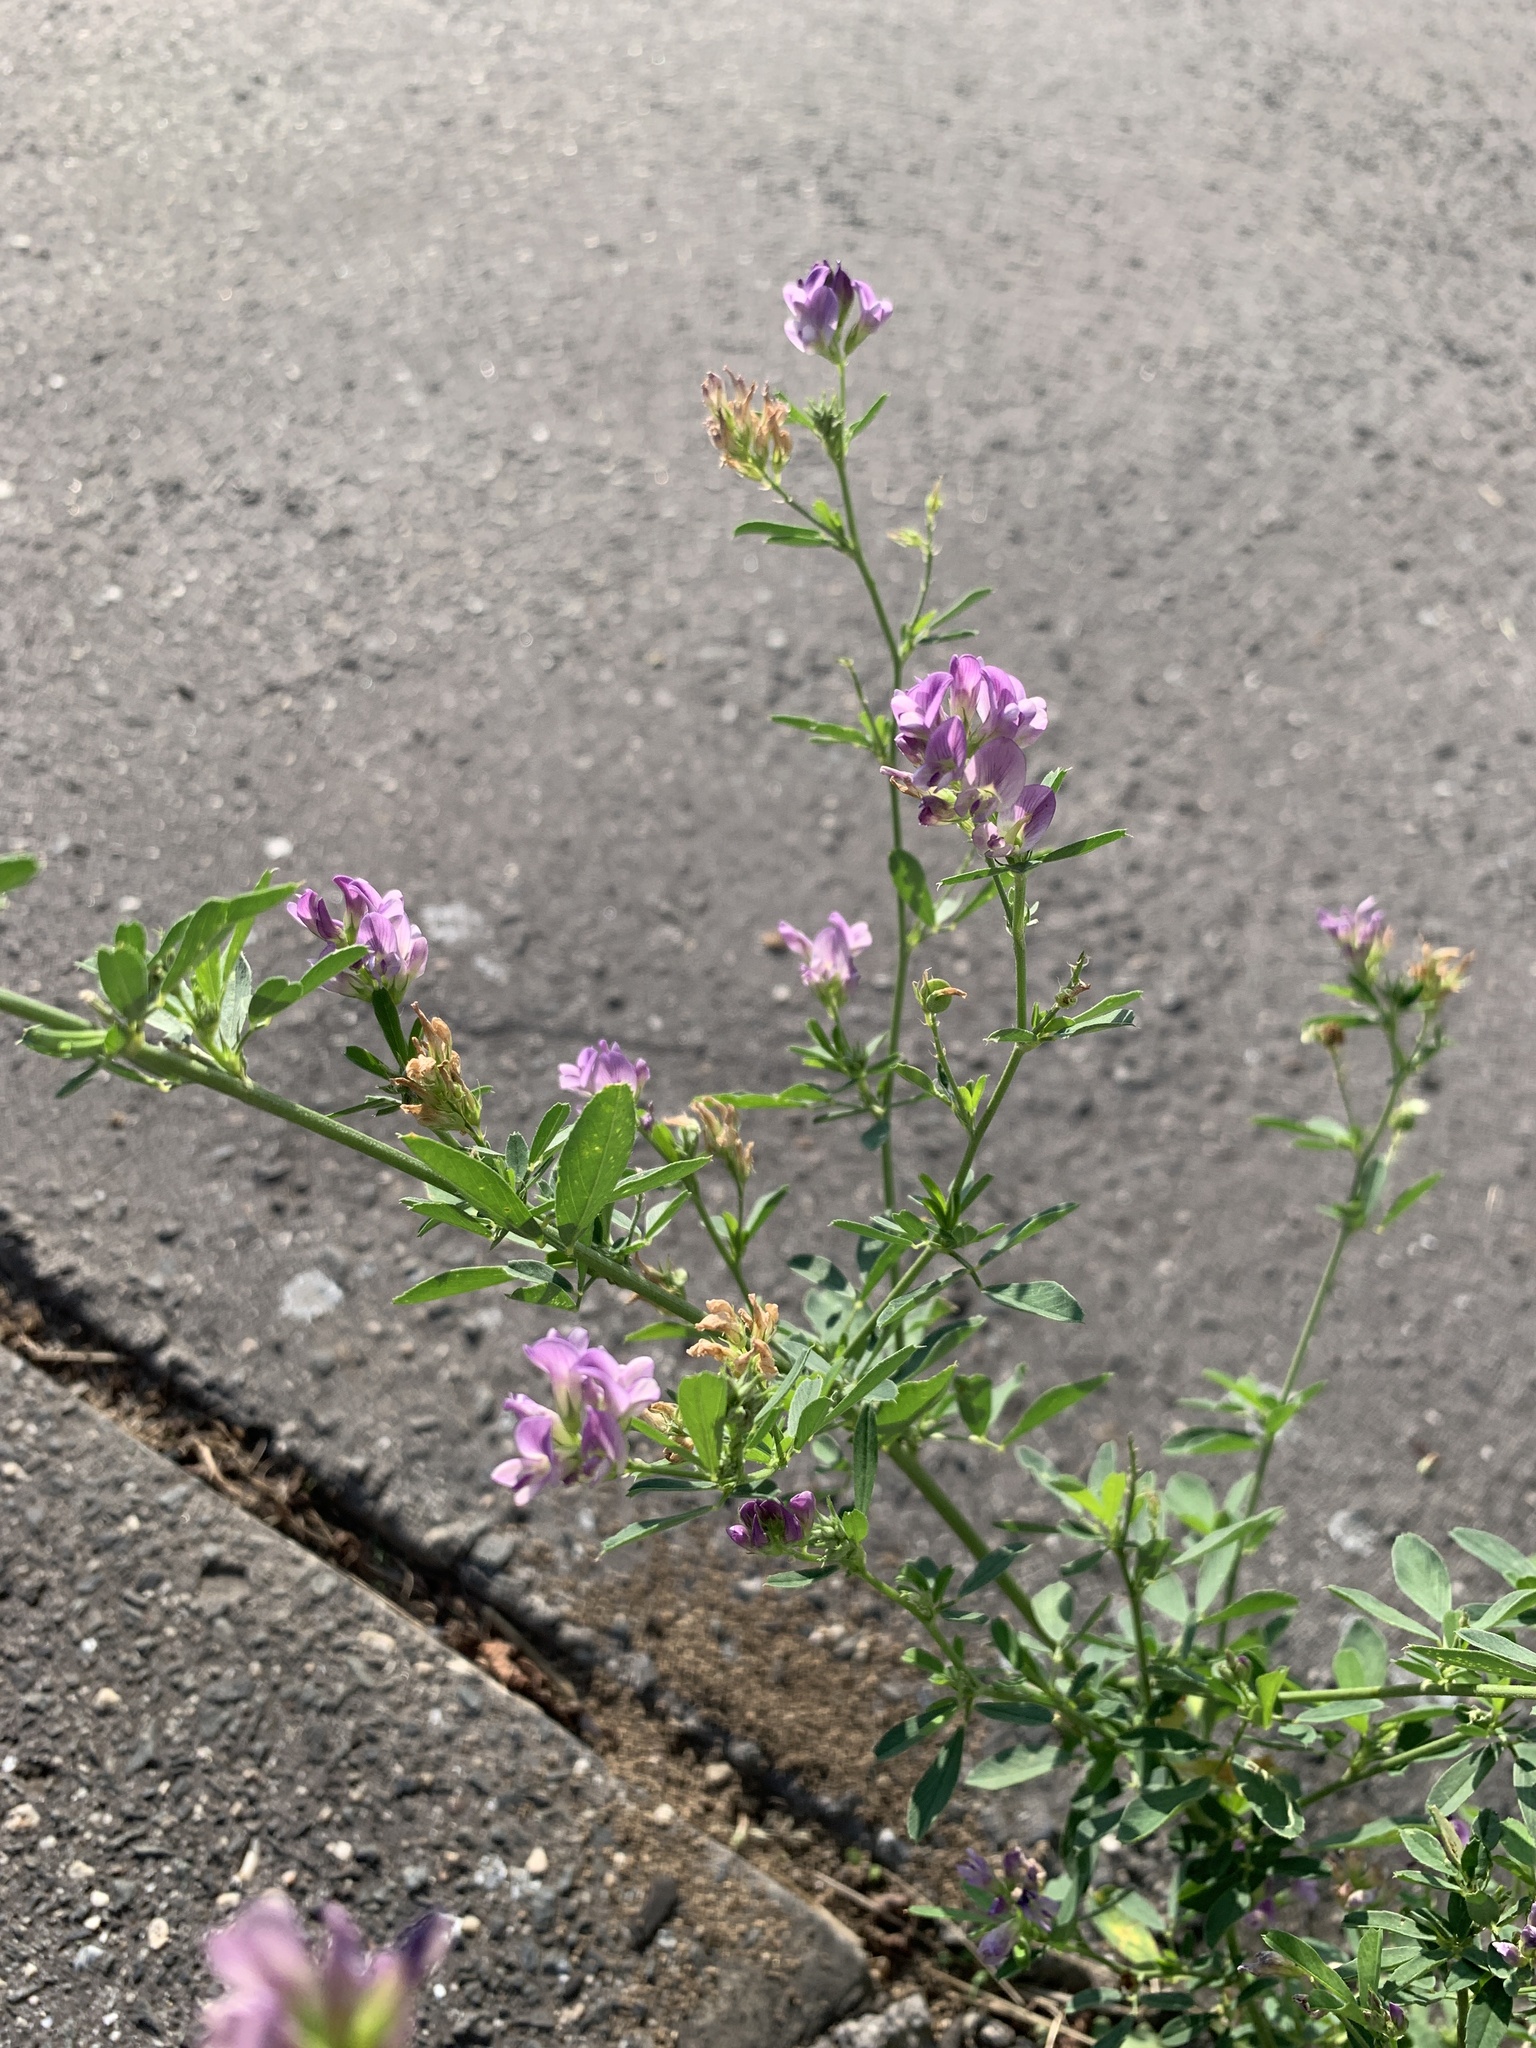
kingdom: Plantae
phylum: Tracheophyta
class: Magnoliopsida
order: Fabales
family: Fabaceae
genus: Medicago
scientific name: Medicago sativa
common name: Alfalfa
